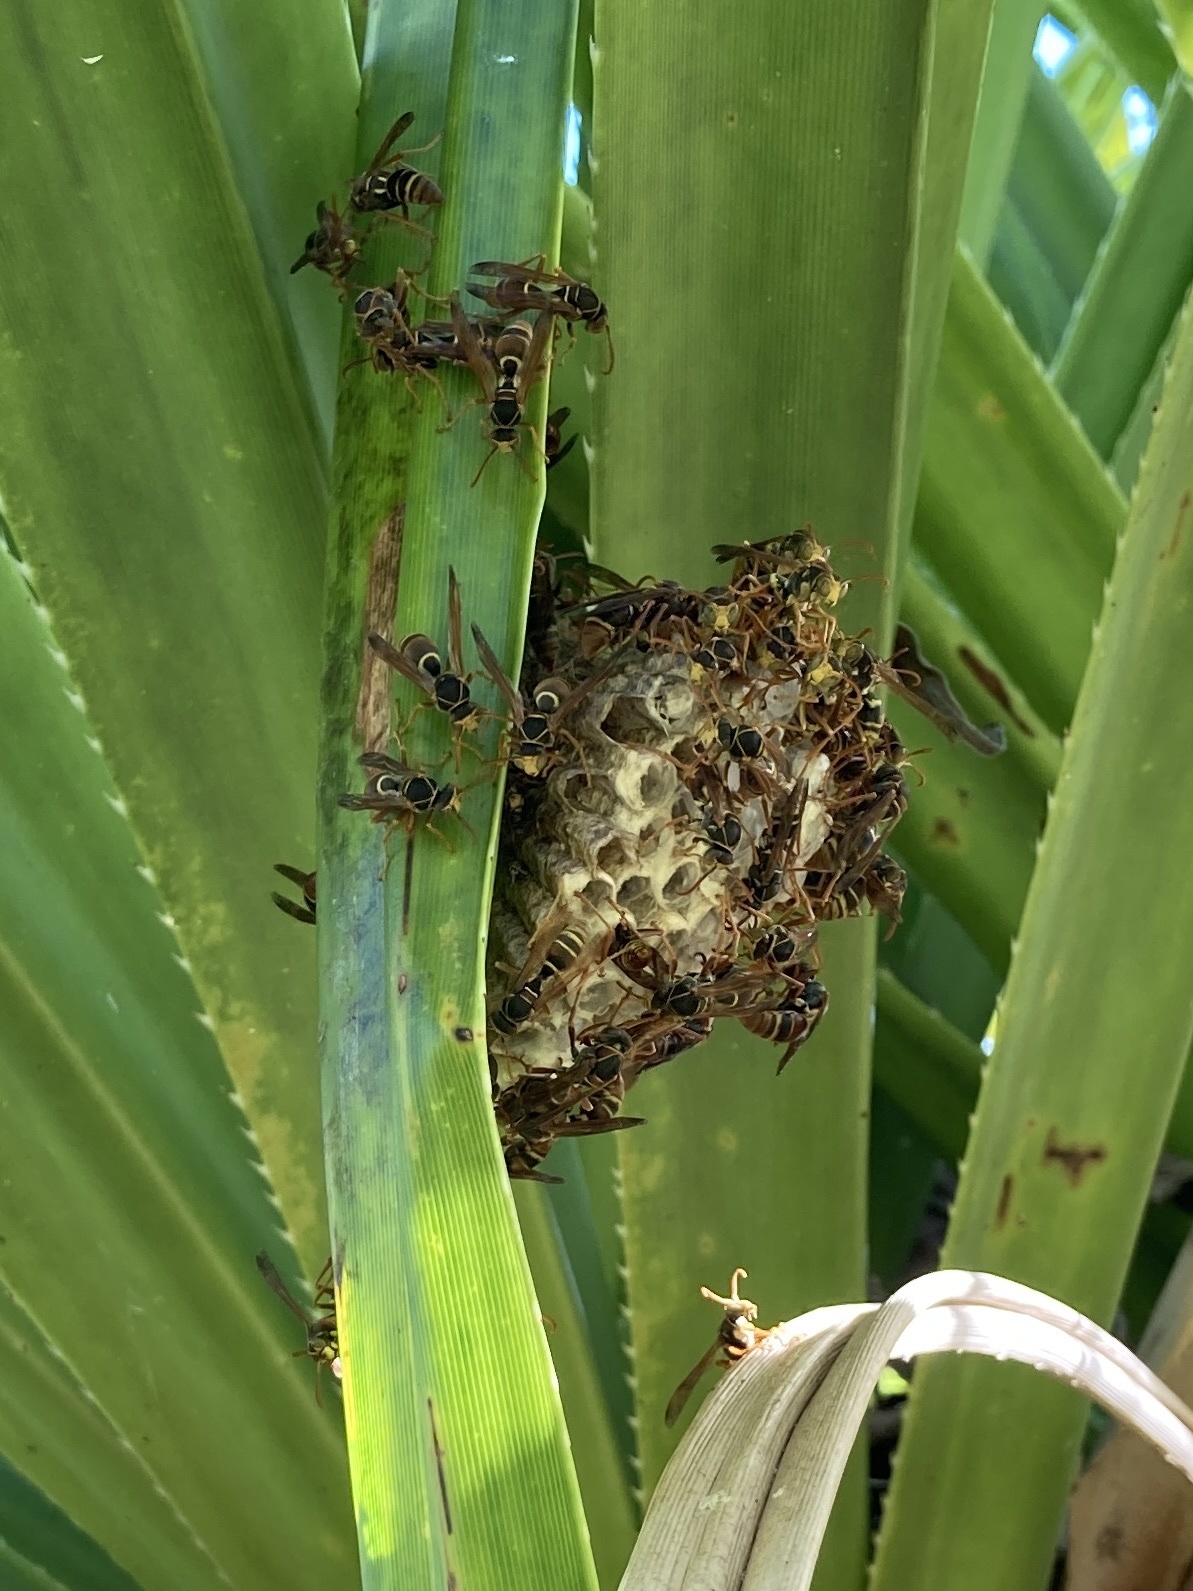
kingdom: Animalia
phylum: Arthropoda
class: Insecta
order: Hymenoptera
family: Eumenidae
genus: Polistes
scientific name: Polistes humilis
